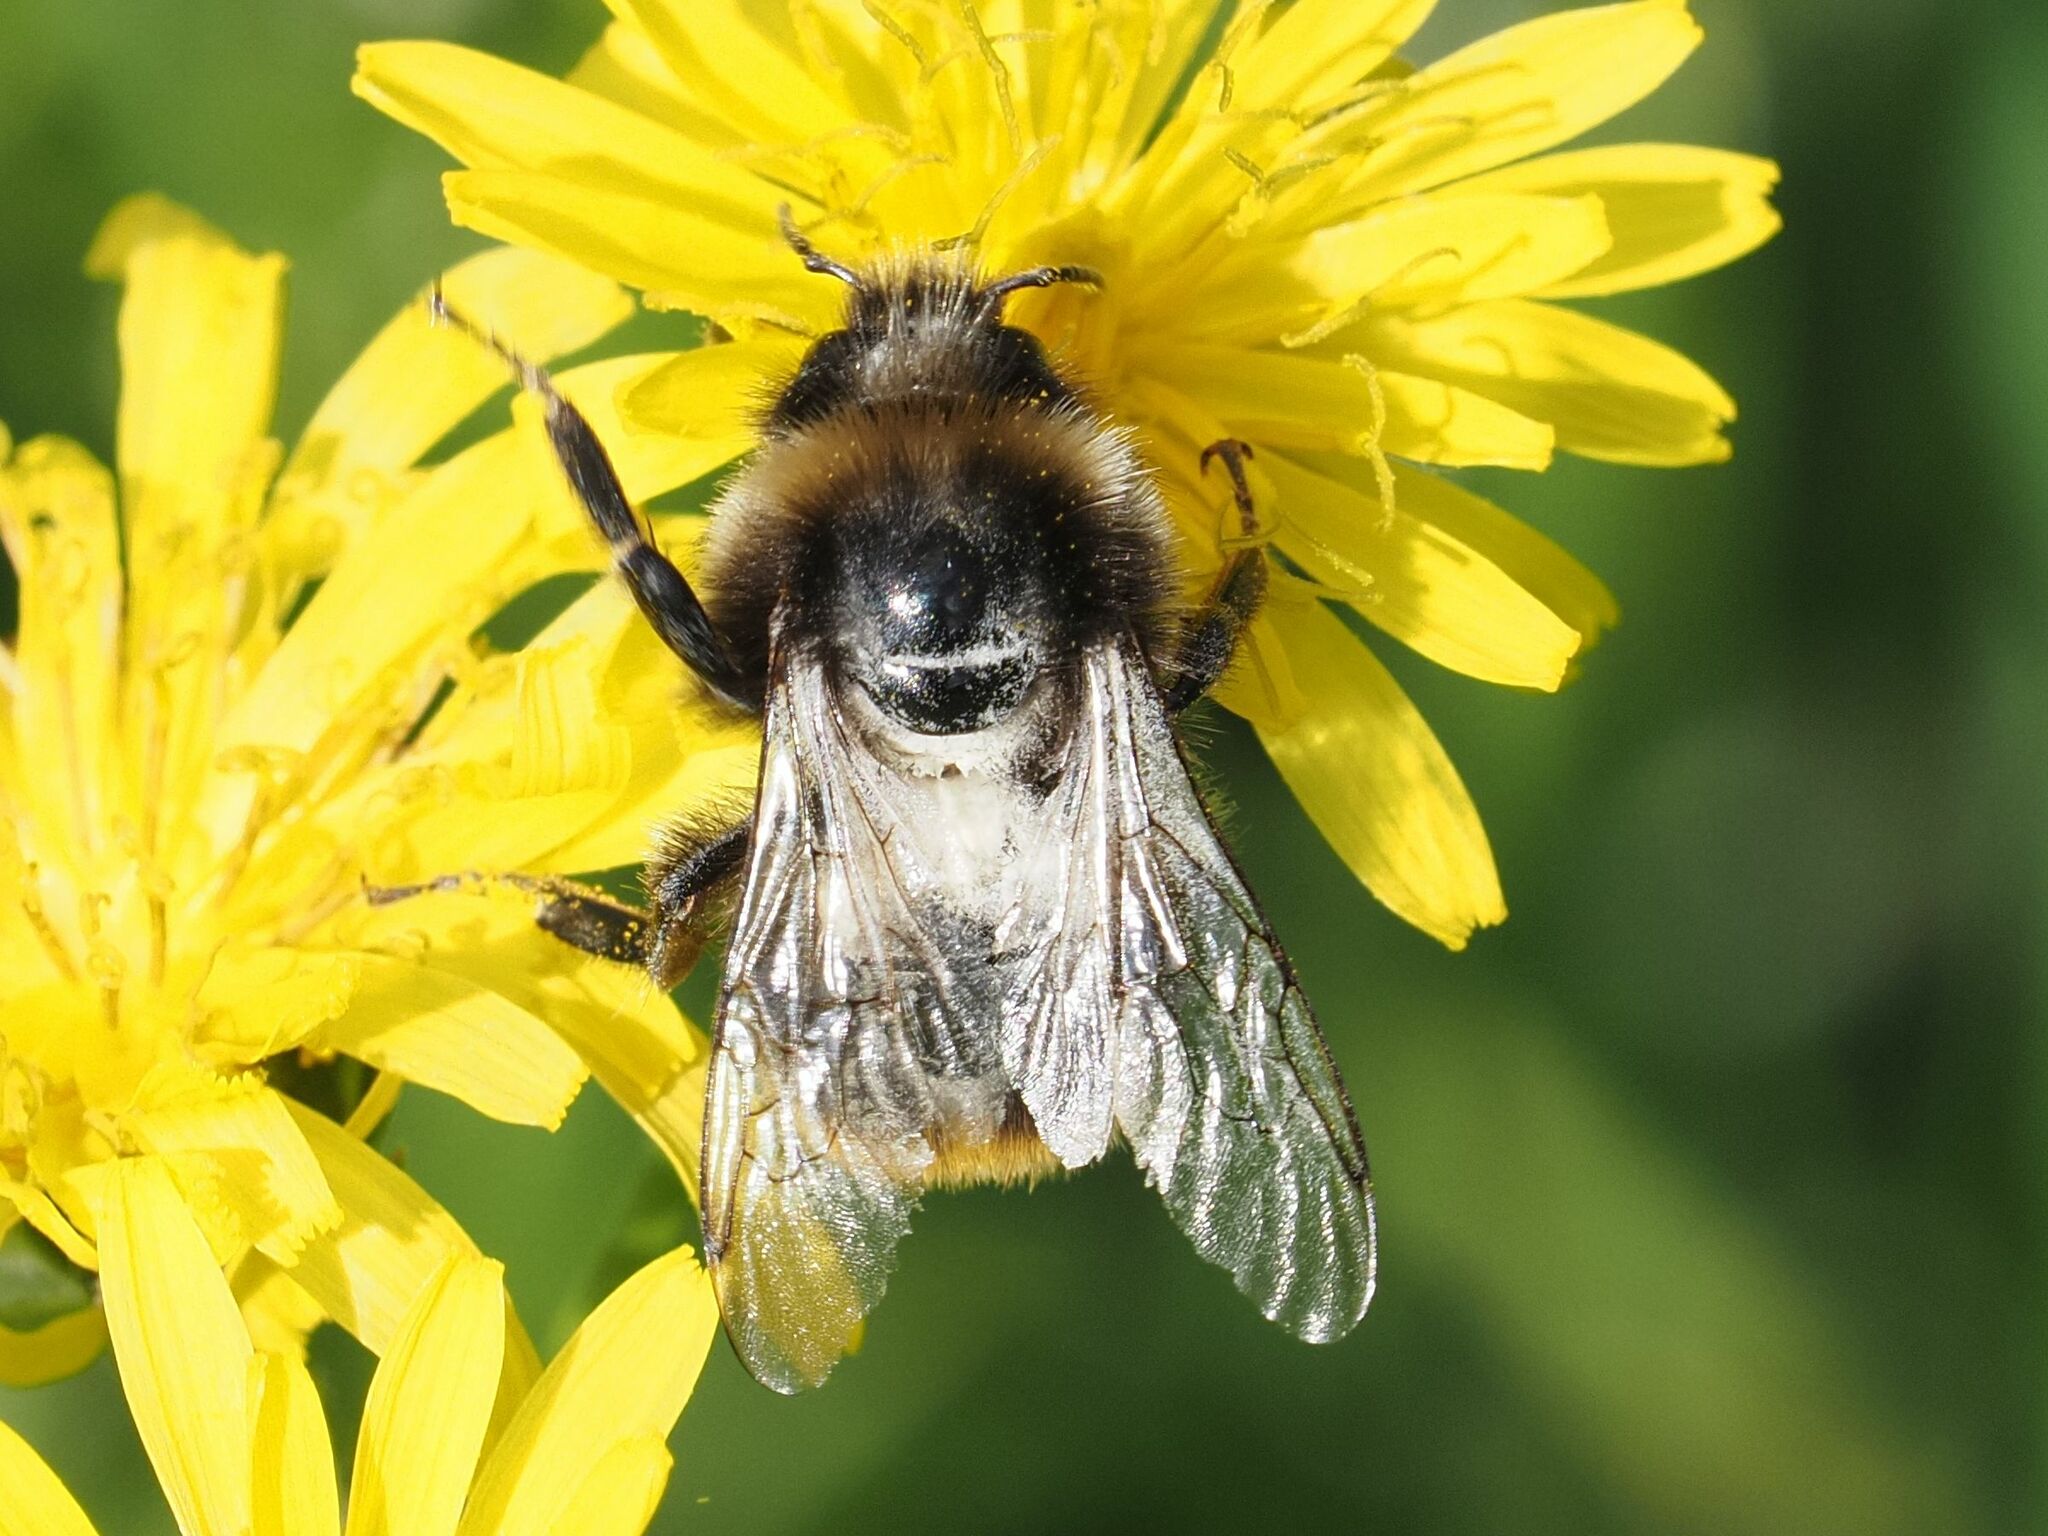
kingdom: Animalia
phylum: Arthropoda
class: Insecta
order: Hymenoptera
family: Apidae
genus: Bombus
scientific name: Bombus lapidarius
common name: Large red-tailed humble-bee
